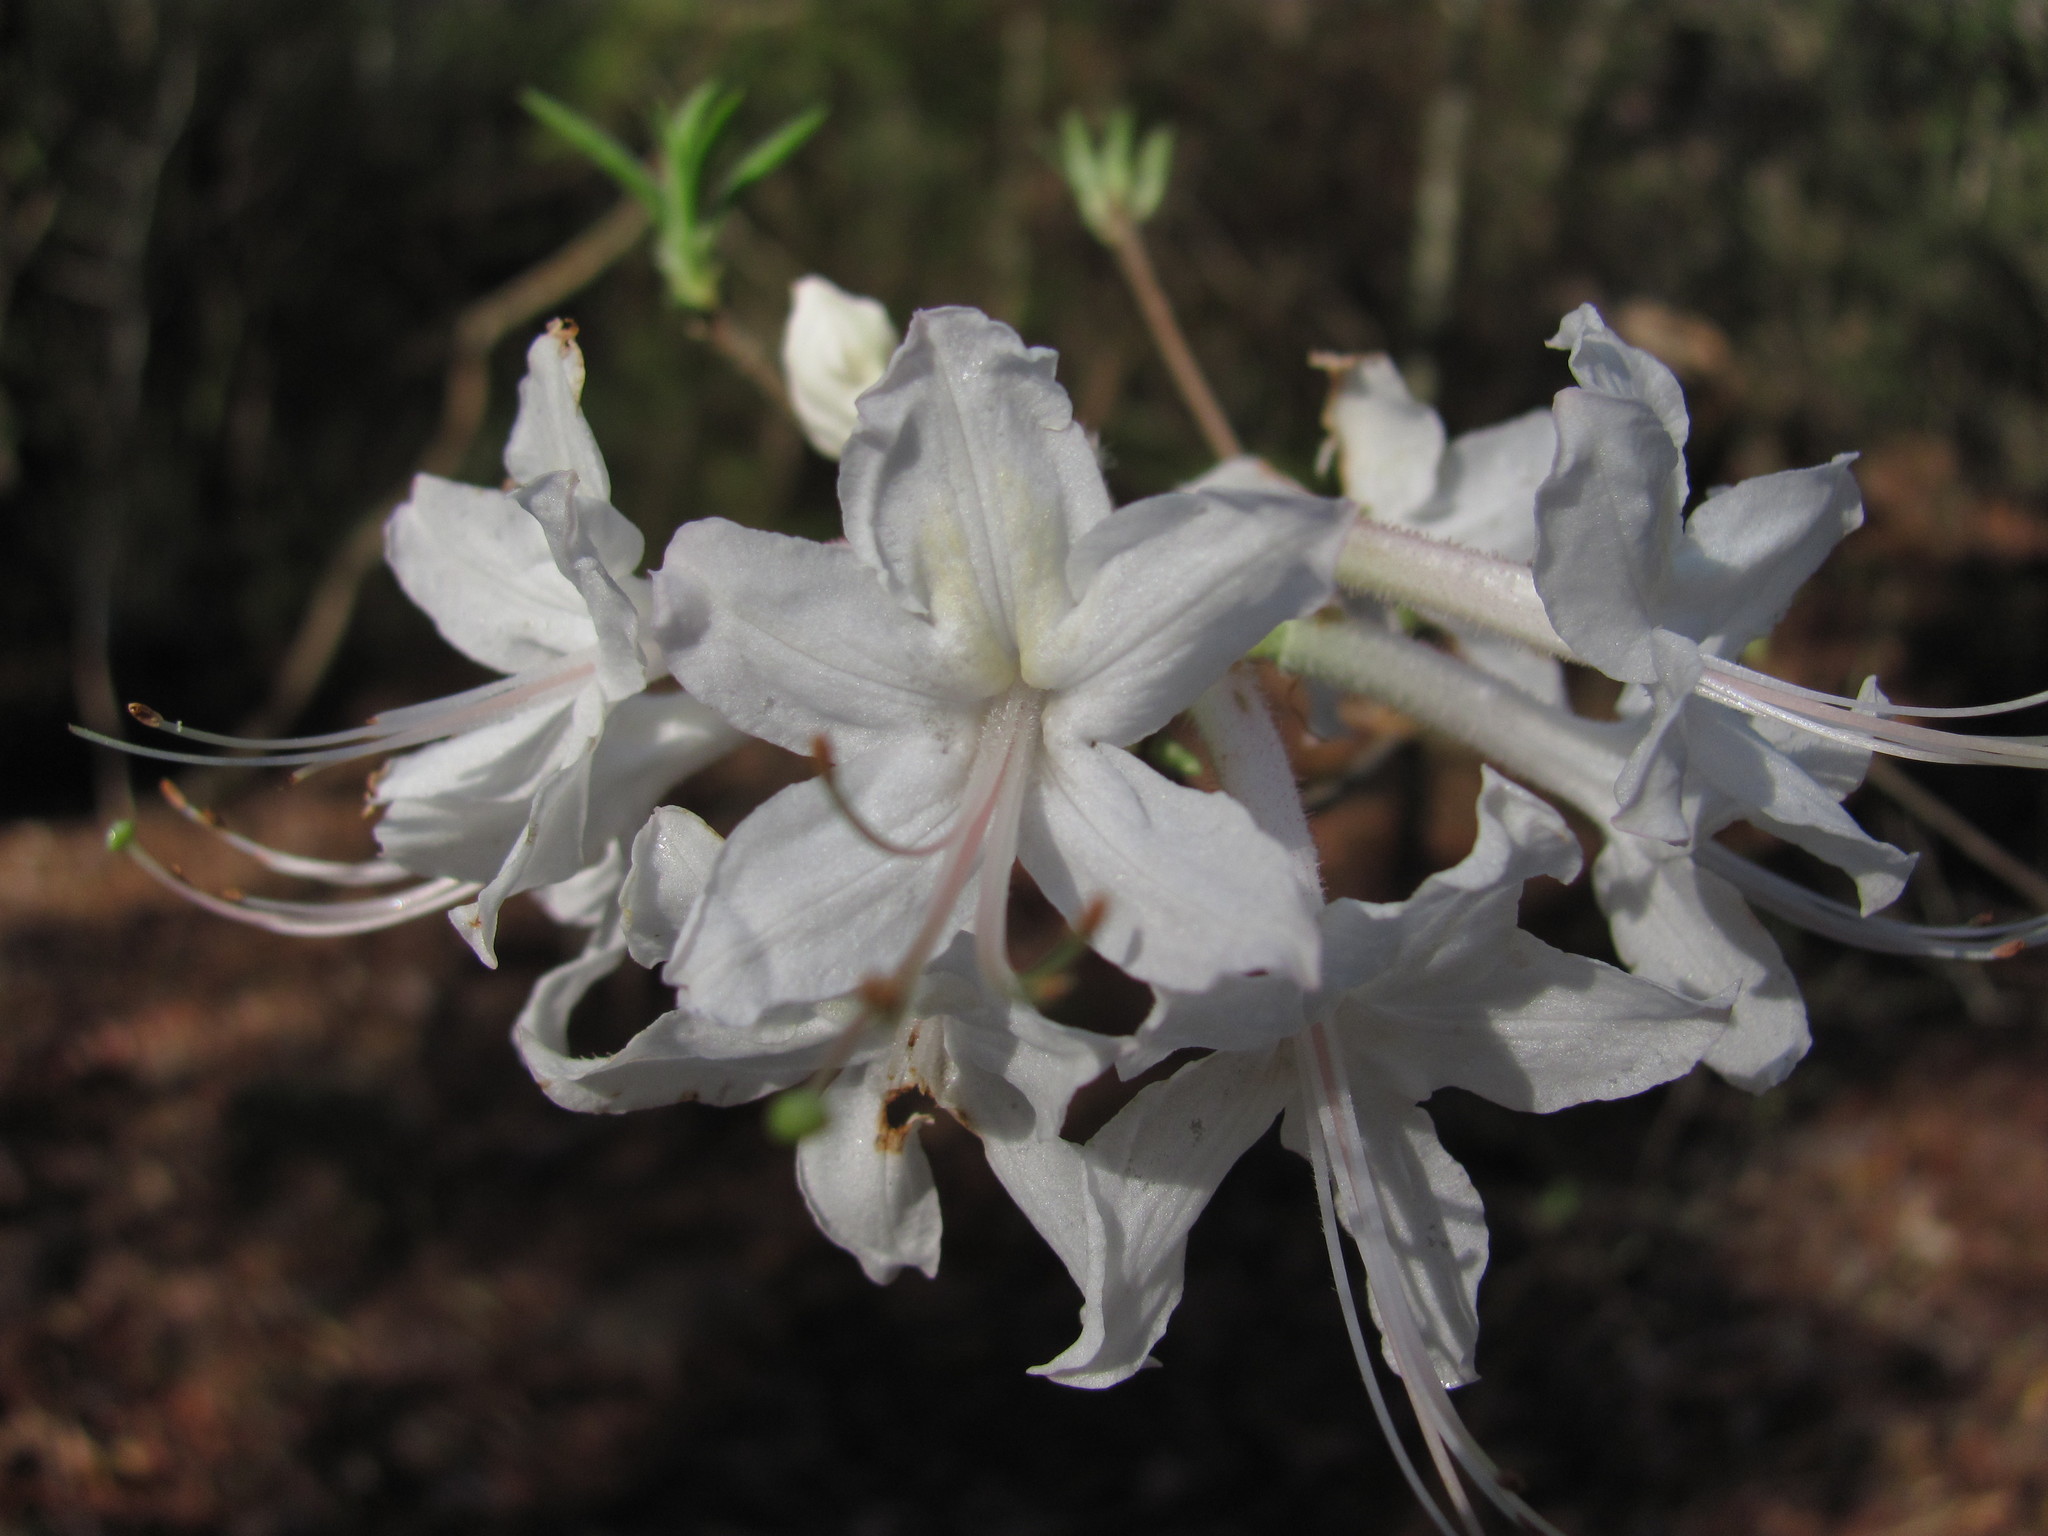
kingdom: Plantae
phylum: Tracheophyta
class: Magnoliopsida
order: Ericales
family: Ericaceae
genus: Rhododendron
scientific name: Rhododendron alabamense
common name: Alabama azalea
